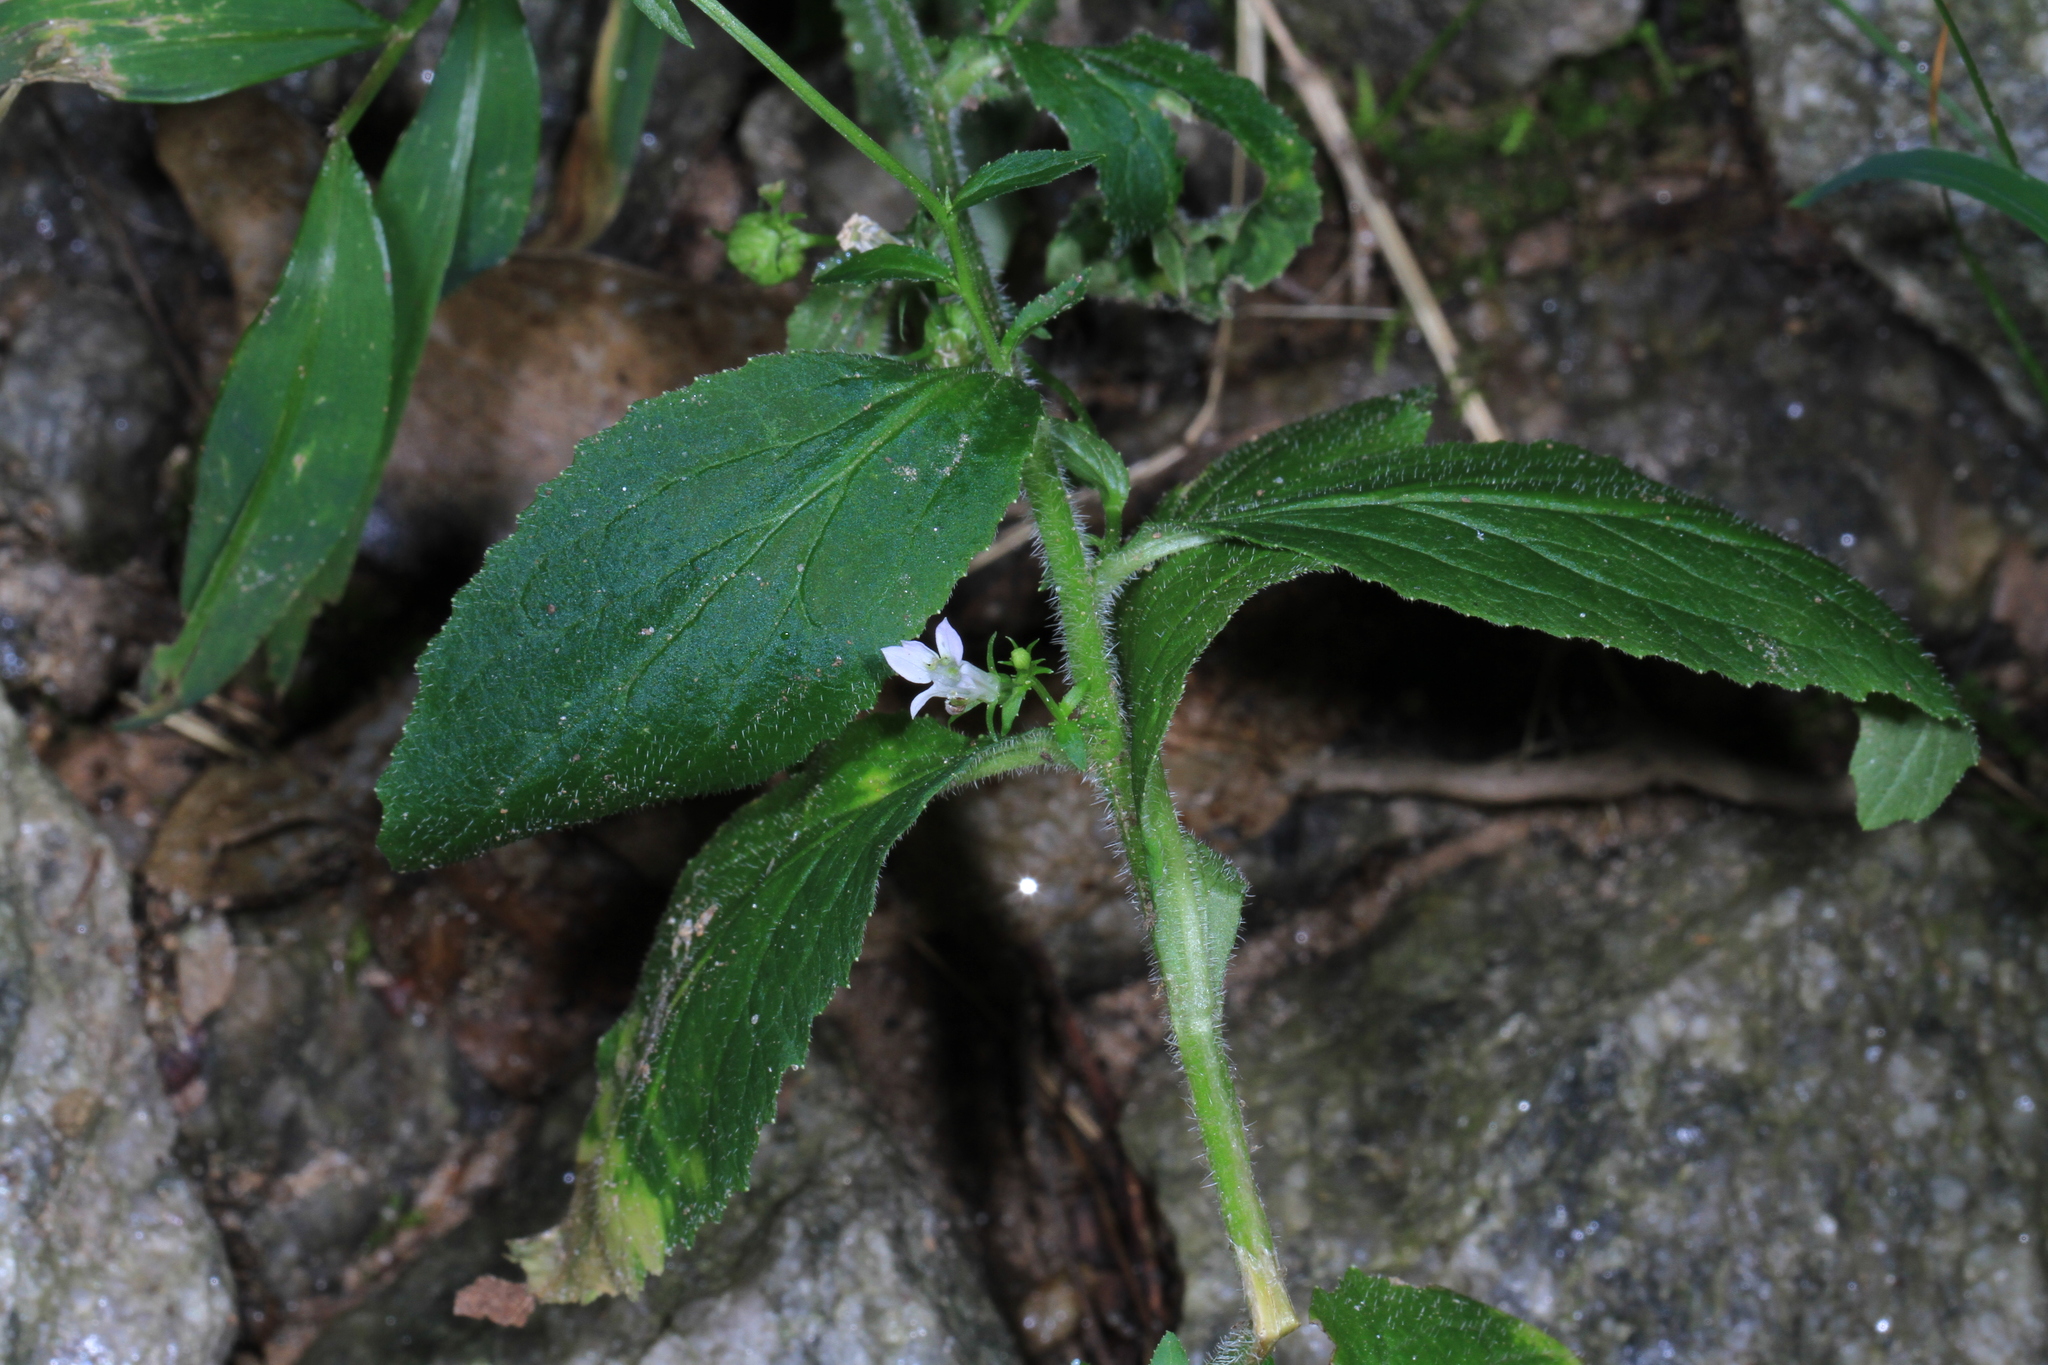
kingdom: Plantae
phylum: Tracheophyta
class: Magnoliopsida
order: Asterales
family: Campanulaceae
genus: Lobelia
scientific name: Lobelia inflata
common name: Indian tobacco
